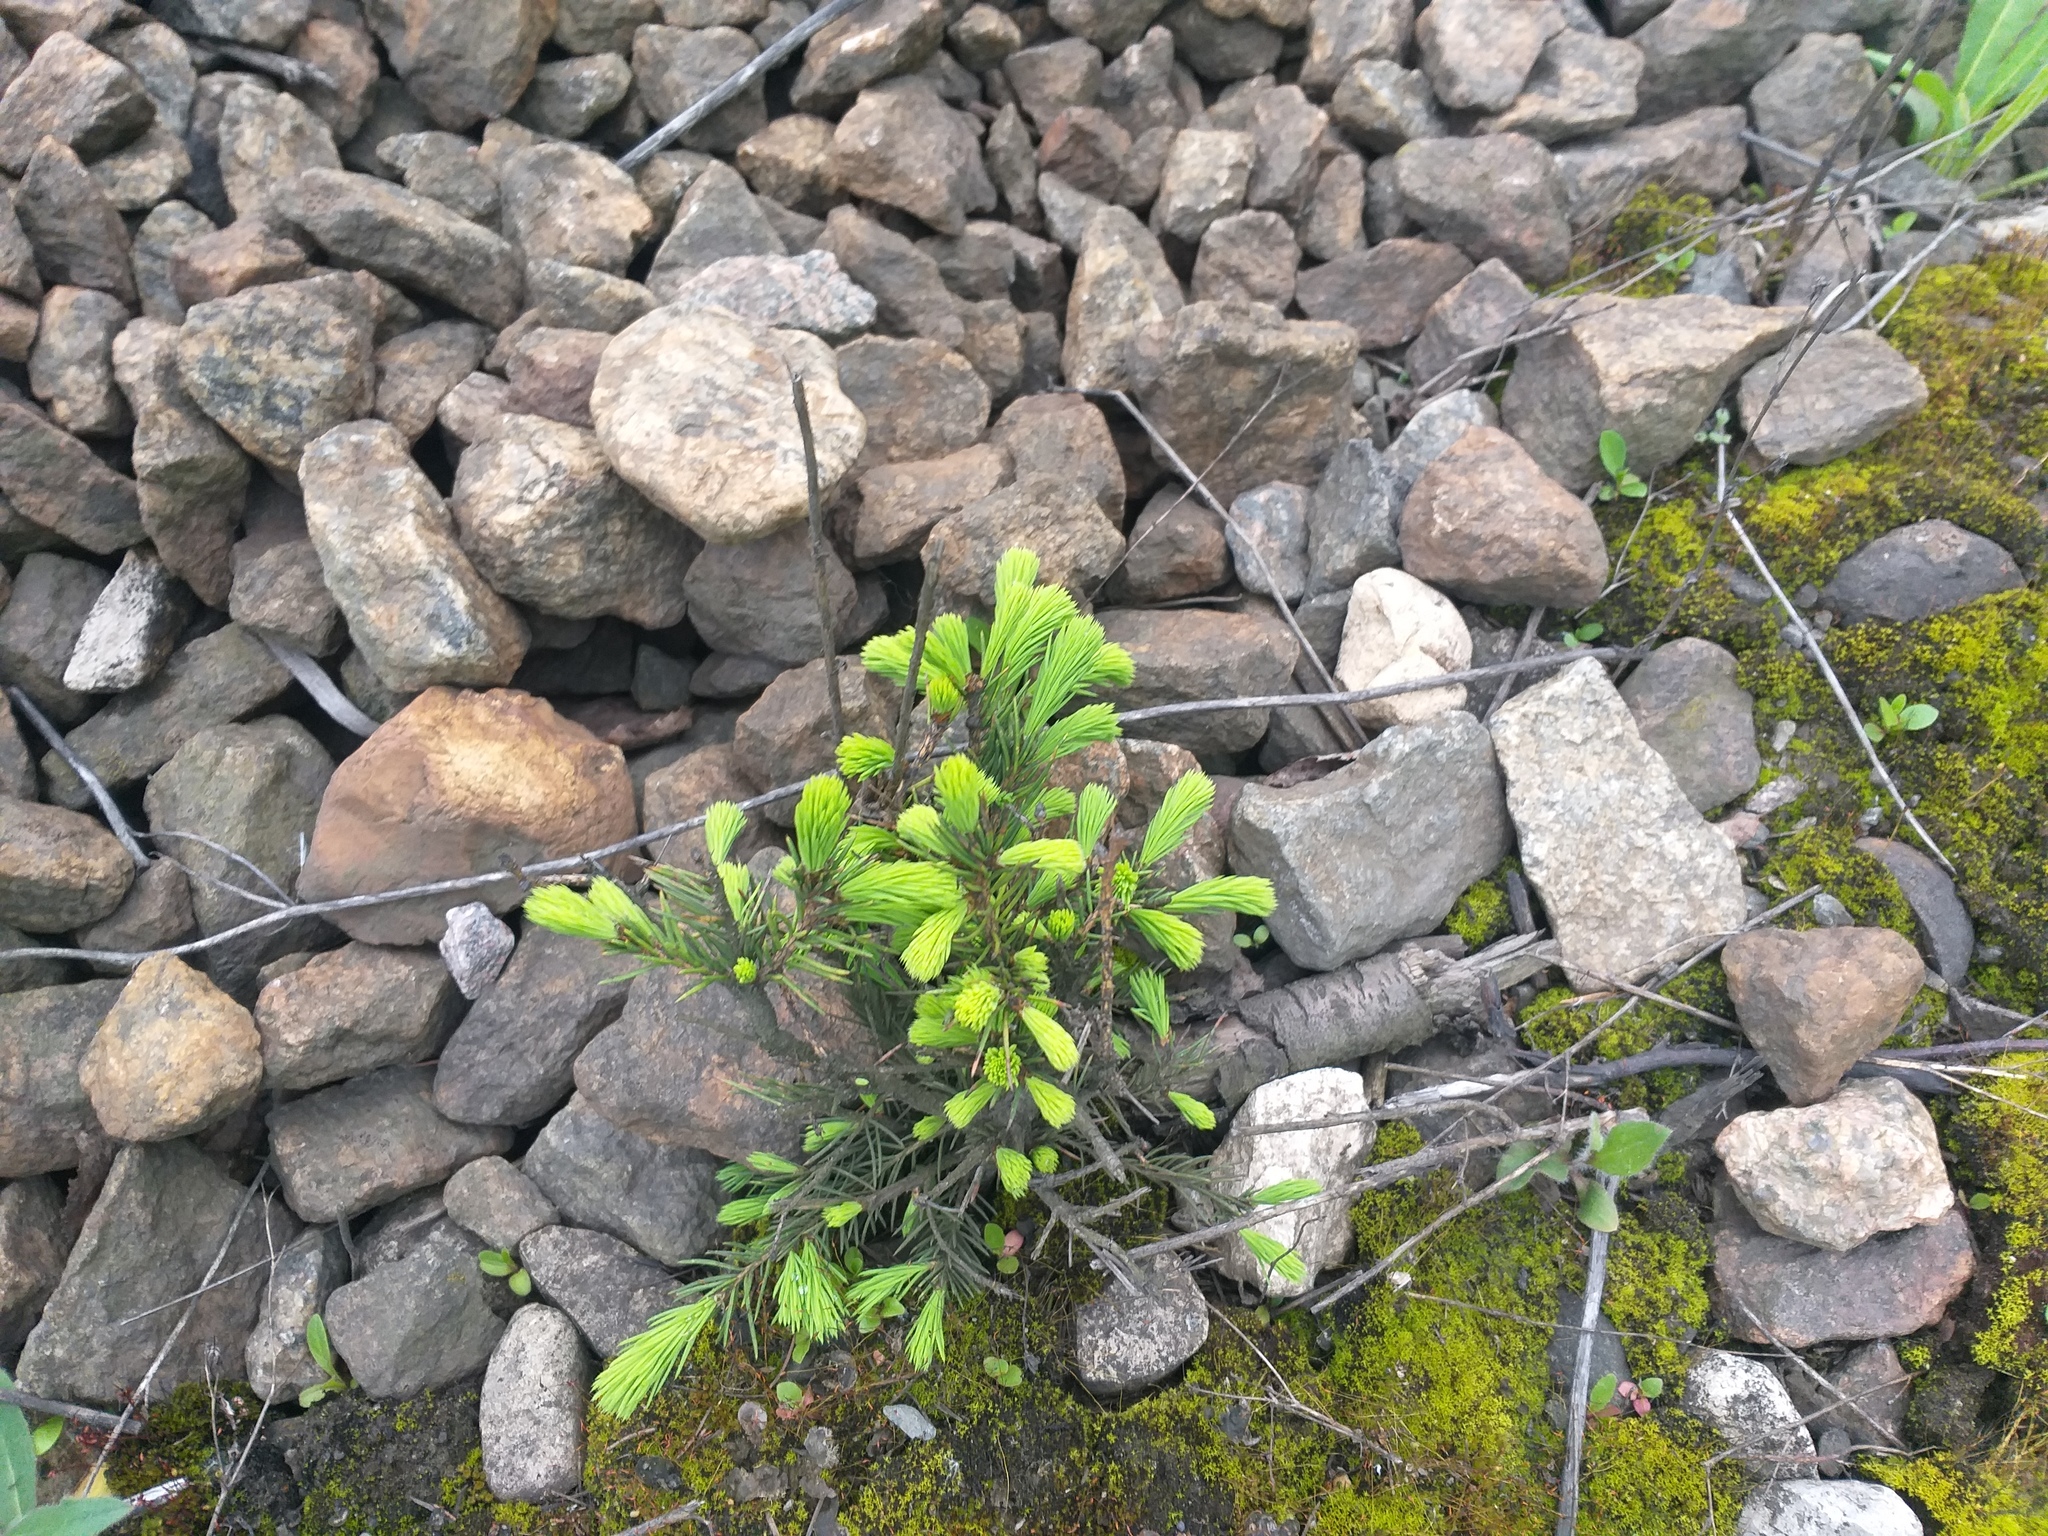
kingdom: Plantae
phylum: Tracheophyta
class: Pinopsida
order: Pinales
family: Pinaceae
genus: Picea
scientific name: Picea abies
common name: Norway spruce
